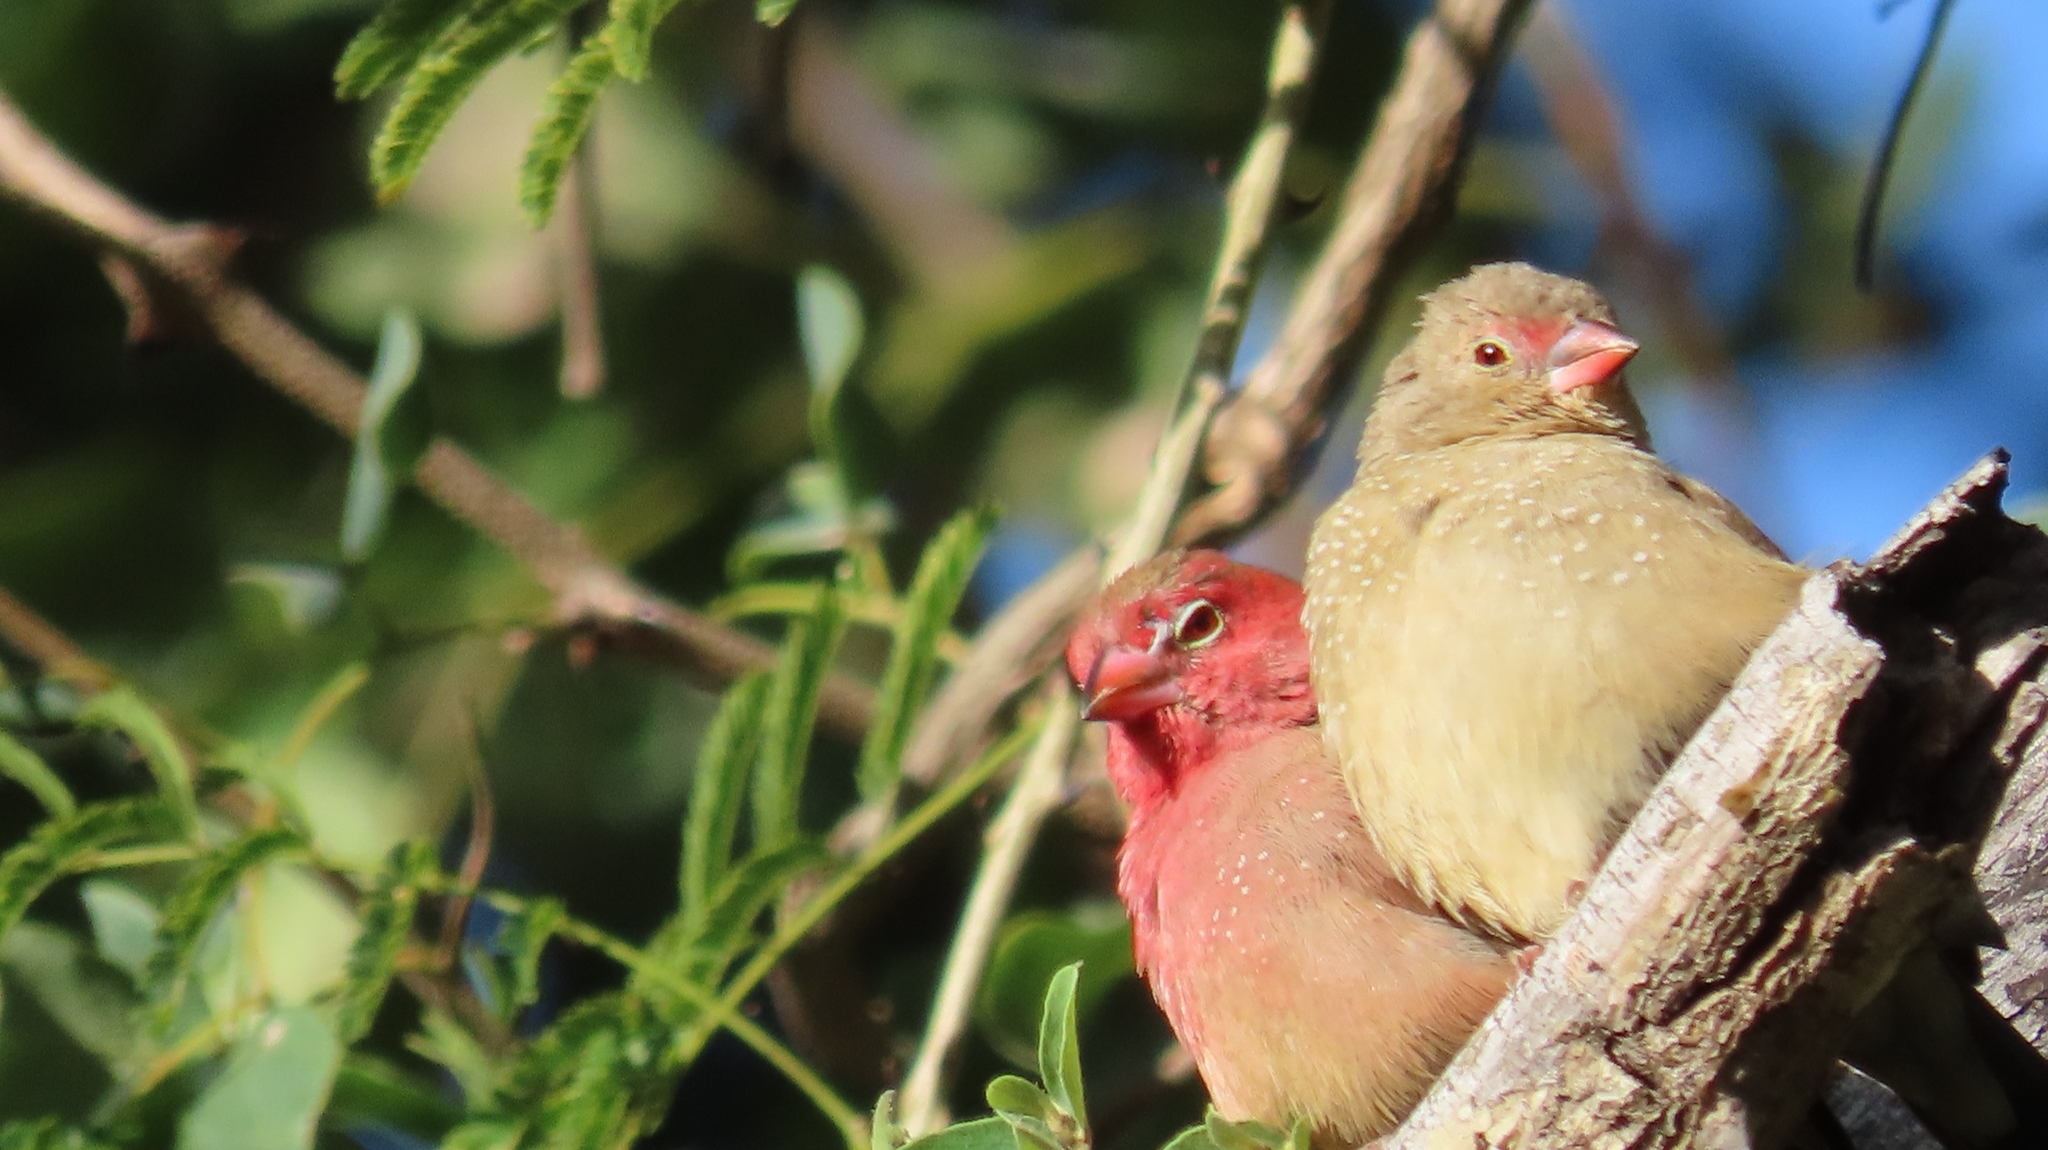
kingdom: Animalia
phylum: Chordata
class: Aves
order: Passeriformes
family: Estrildidae
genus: Lagonosticta
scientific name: Lagonosticta senegala
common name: Red-billed firefinch
